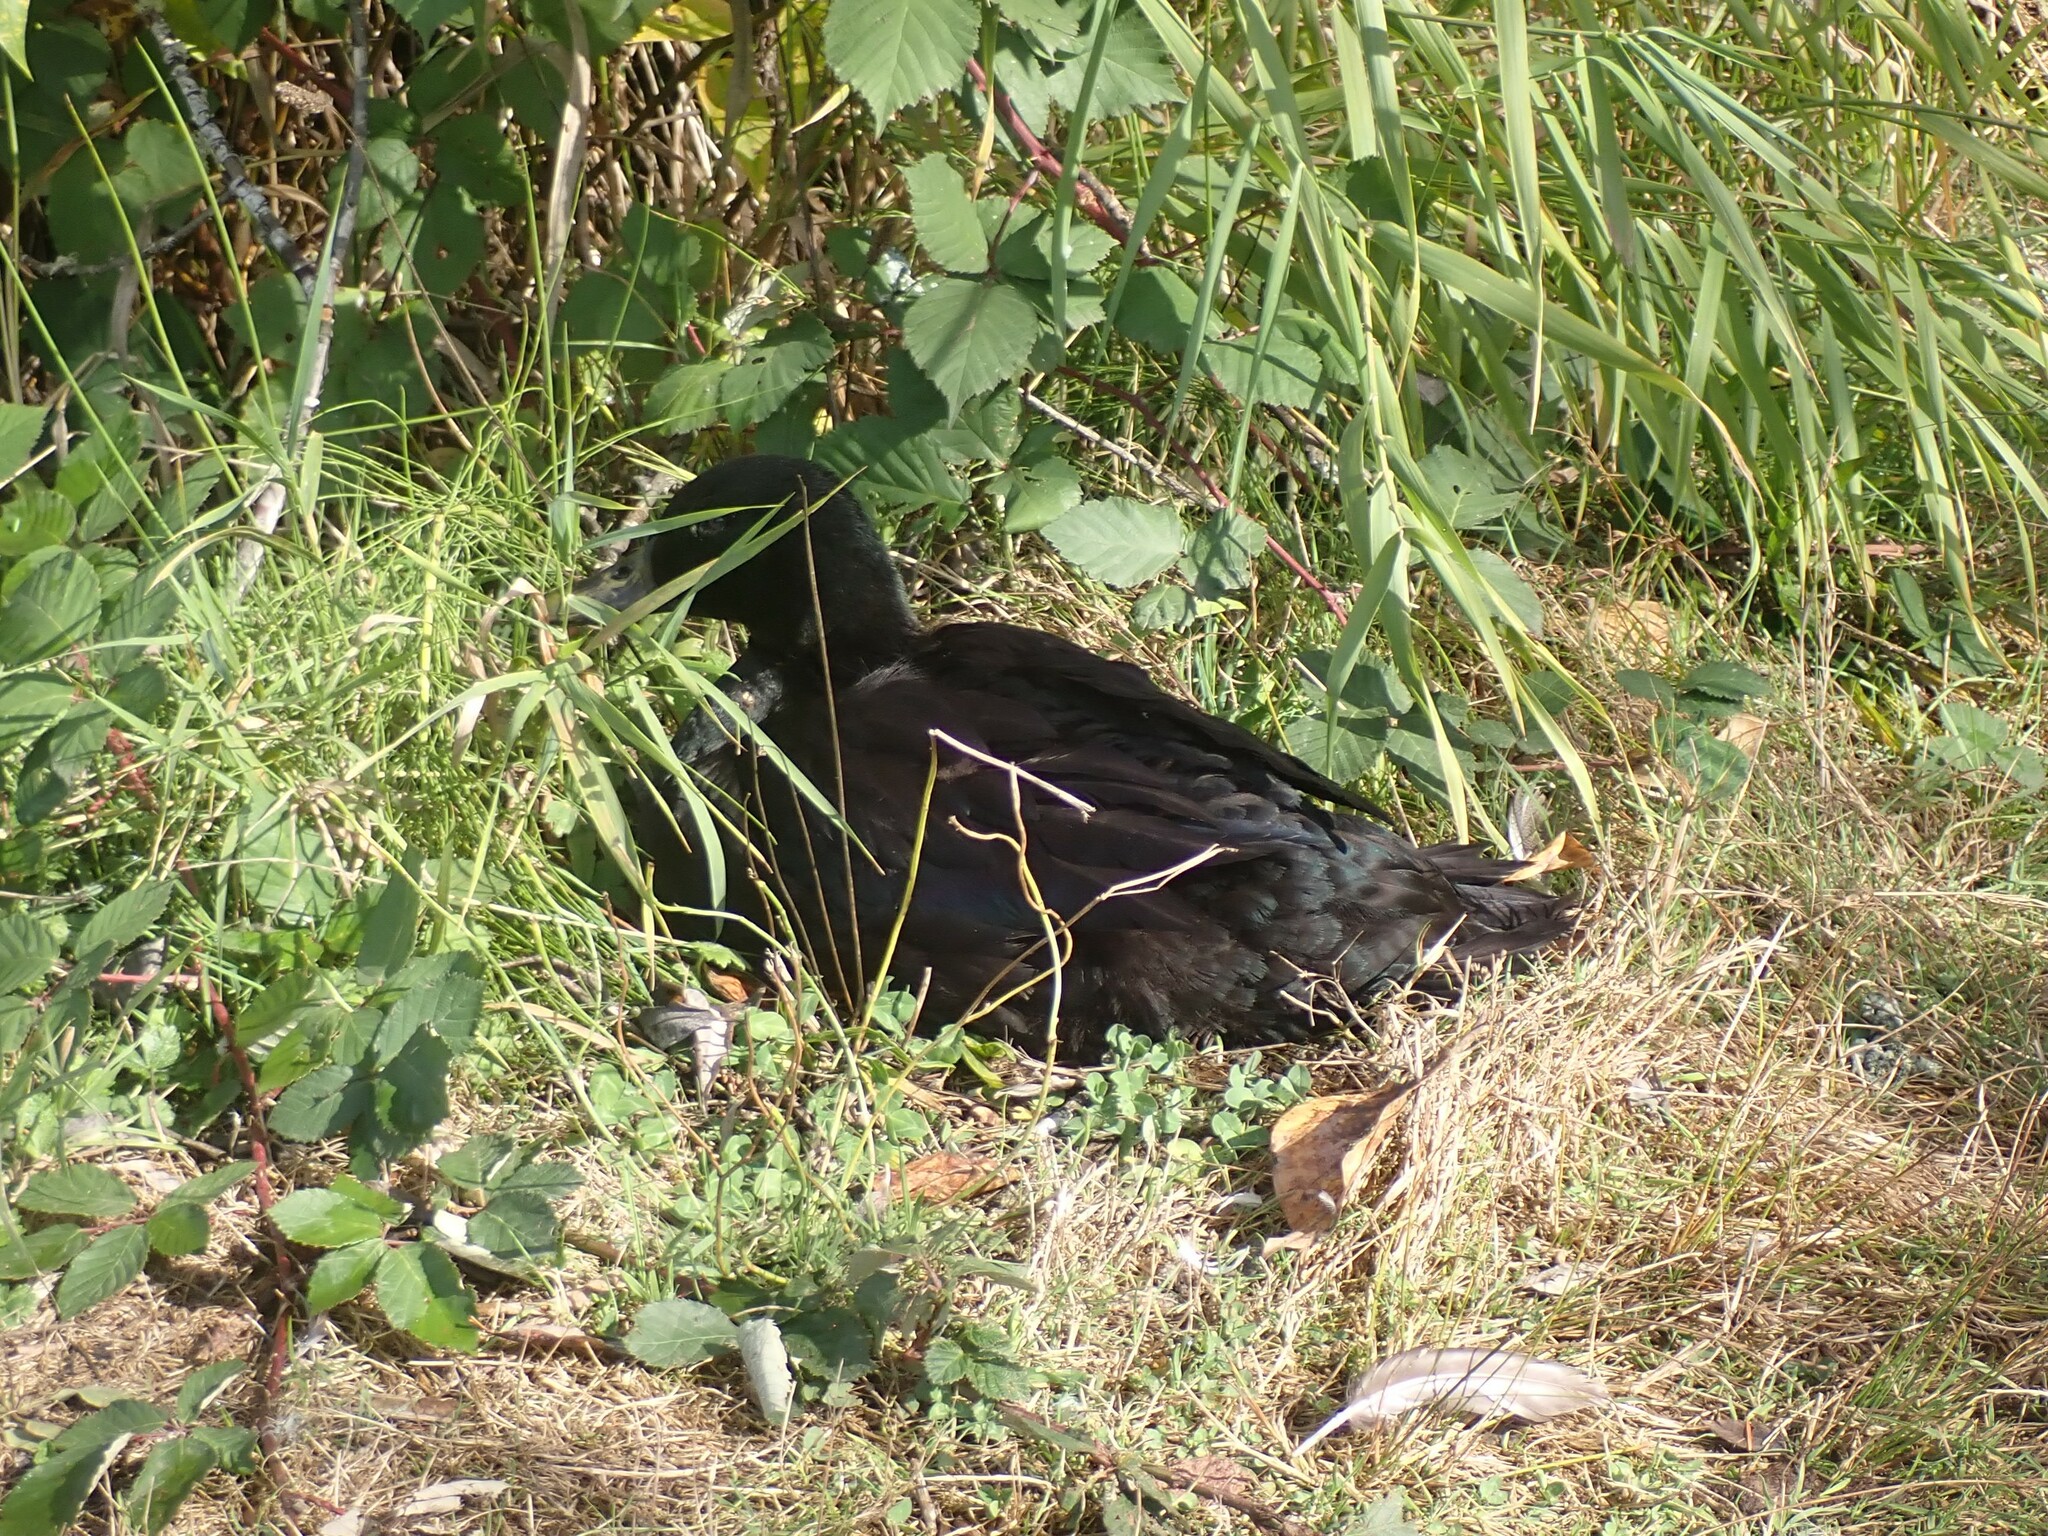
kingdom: Animalia
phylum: Chordata
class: Aves
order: Anseriformes
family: Anatidae
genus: Anas
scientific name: Anas platyrhynchos
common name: Mallard
